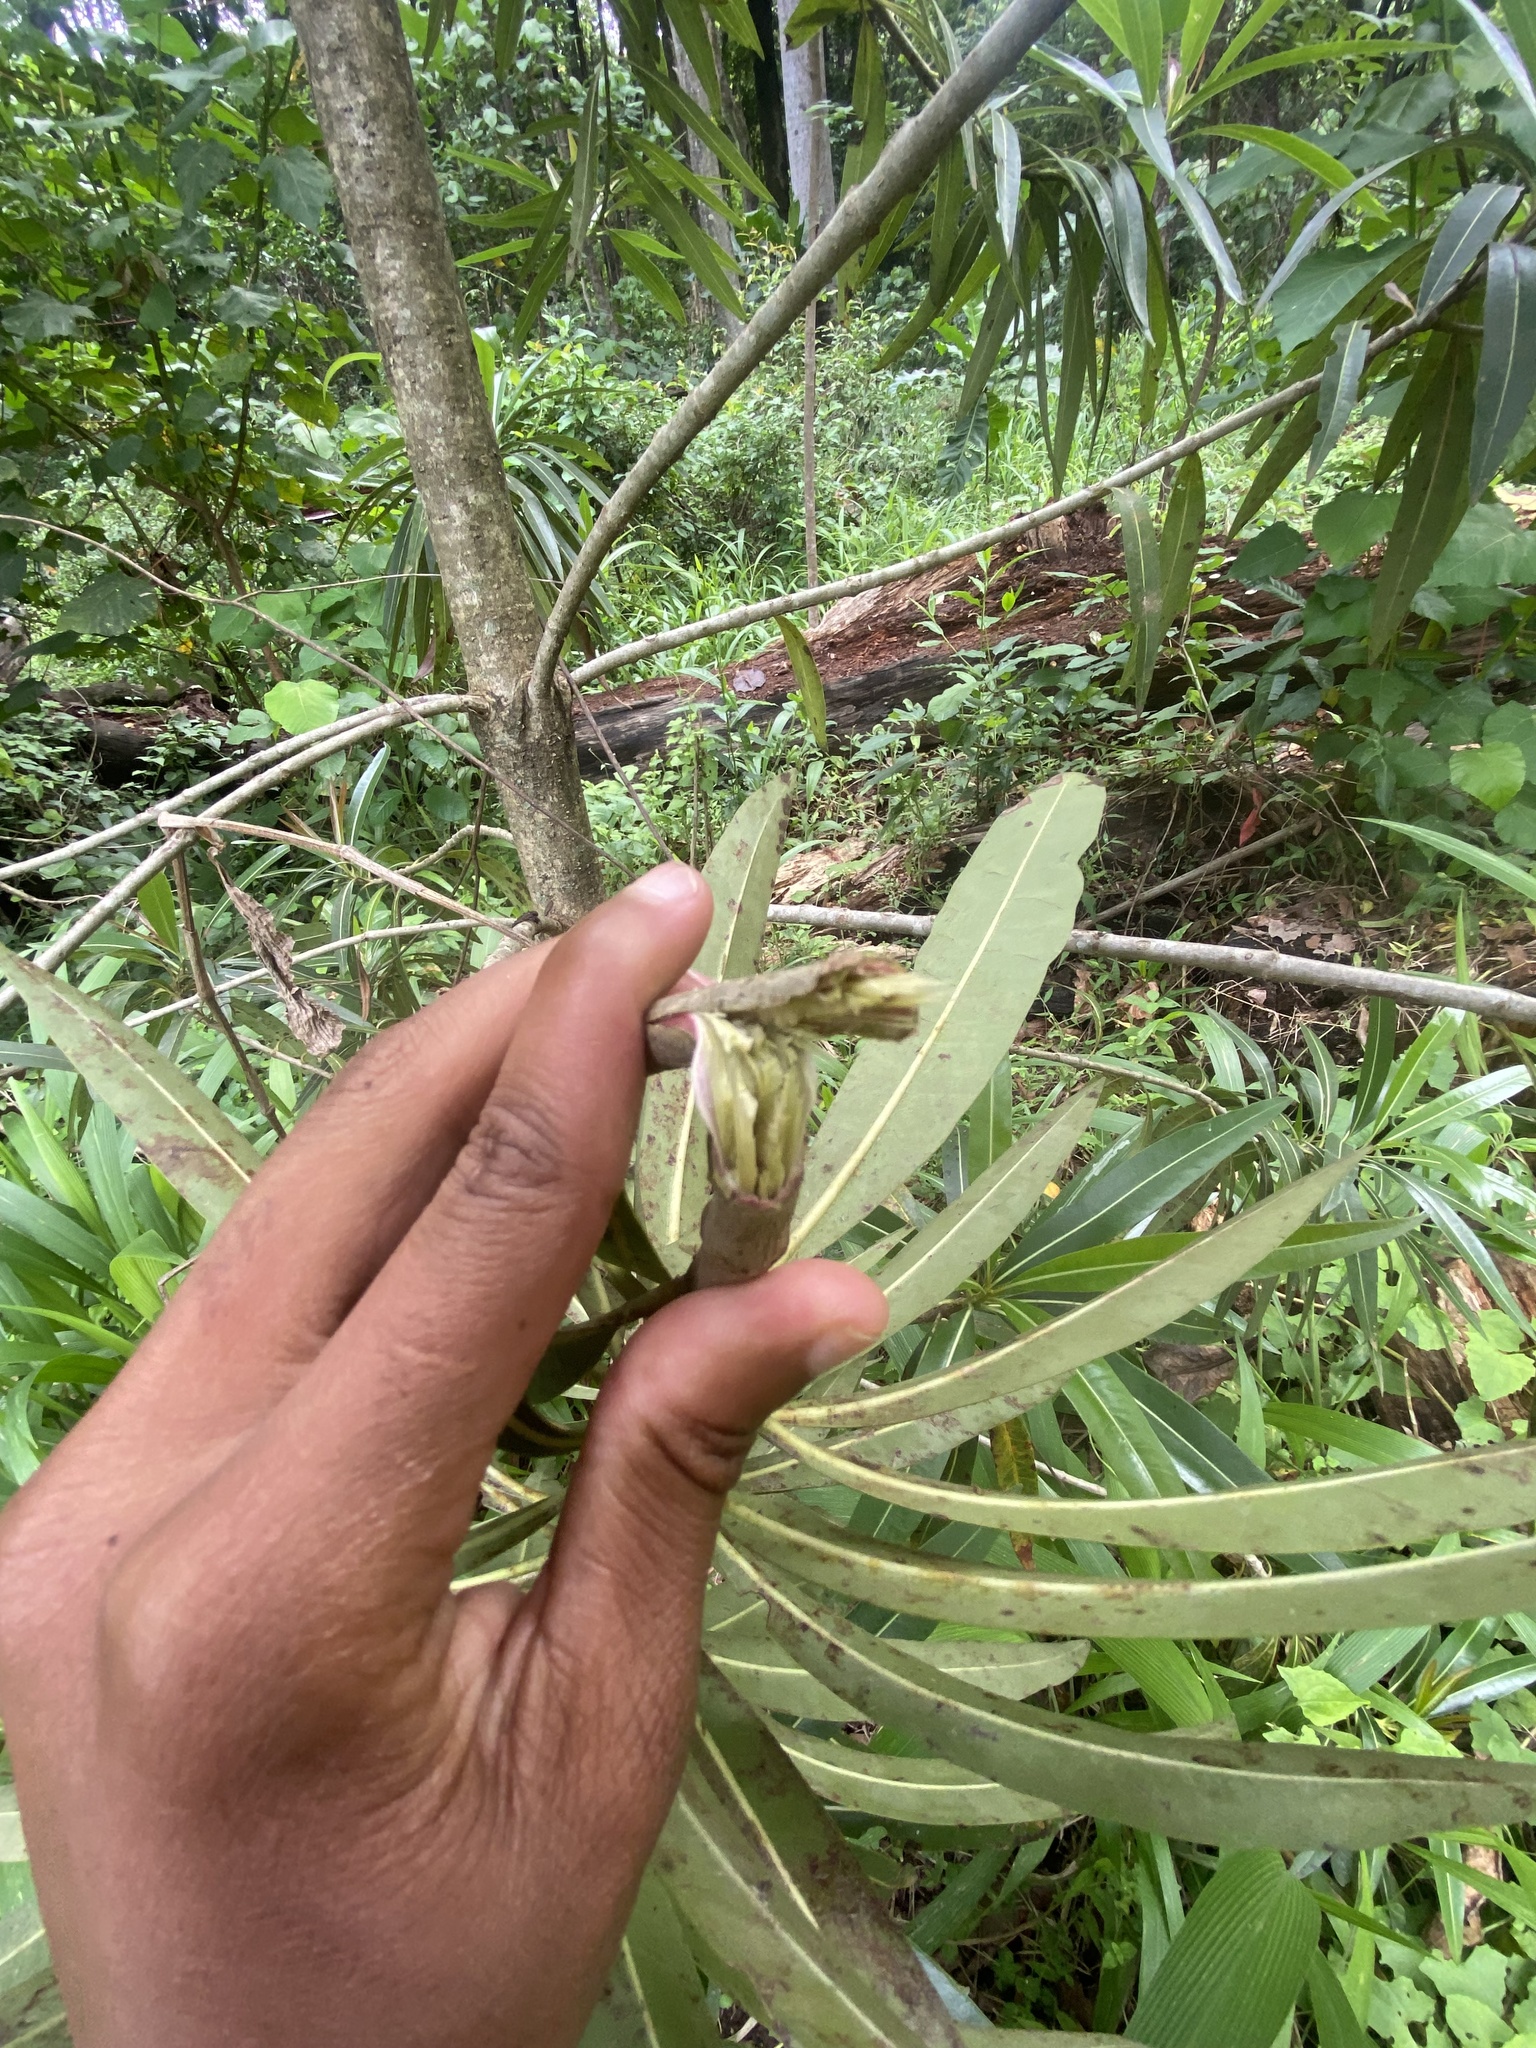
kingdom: Plantae
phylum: Tracheophyta
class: Magnoliopsida
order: Gentianales
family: Rubiaceae
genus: Breonadia
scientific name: Breonadia salicina
